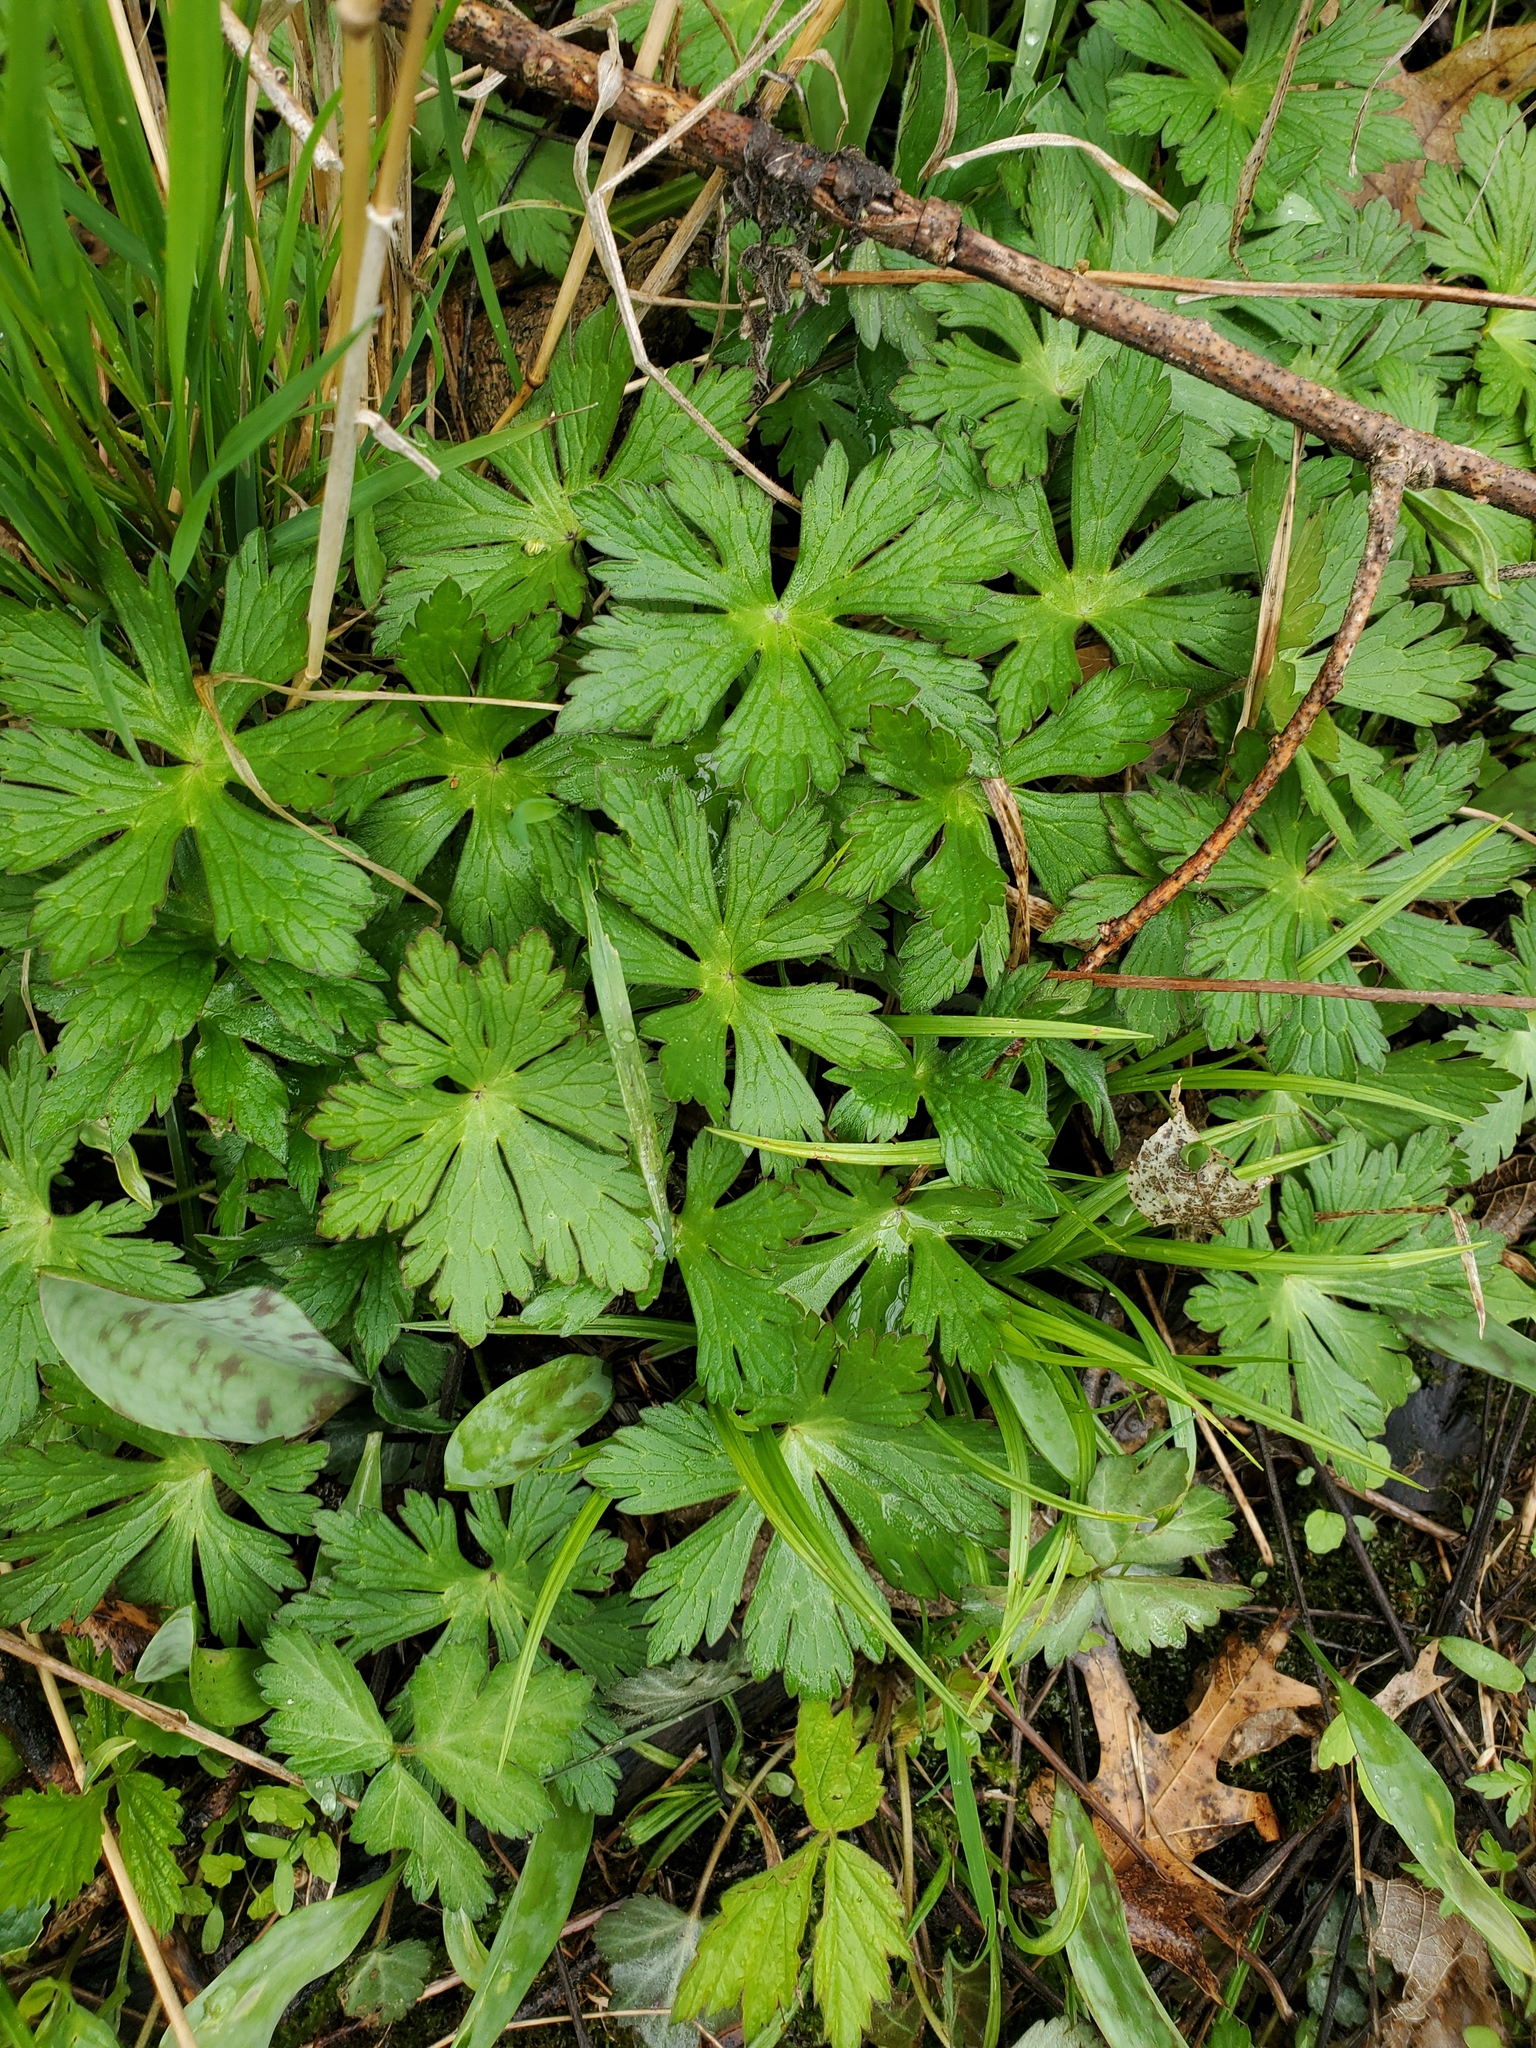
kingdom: Plantae
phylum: Tracheophyta
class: Magnoliopsida
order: Geraniales
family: Geraniaceae
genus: Geranium
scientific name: Geranium maculatum
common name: Spotted geranium
